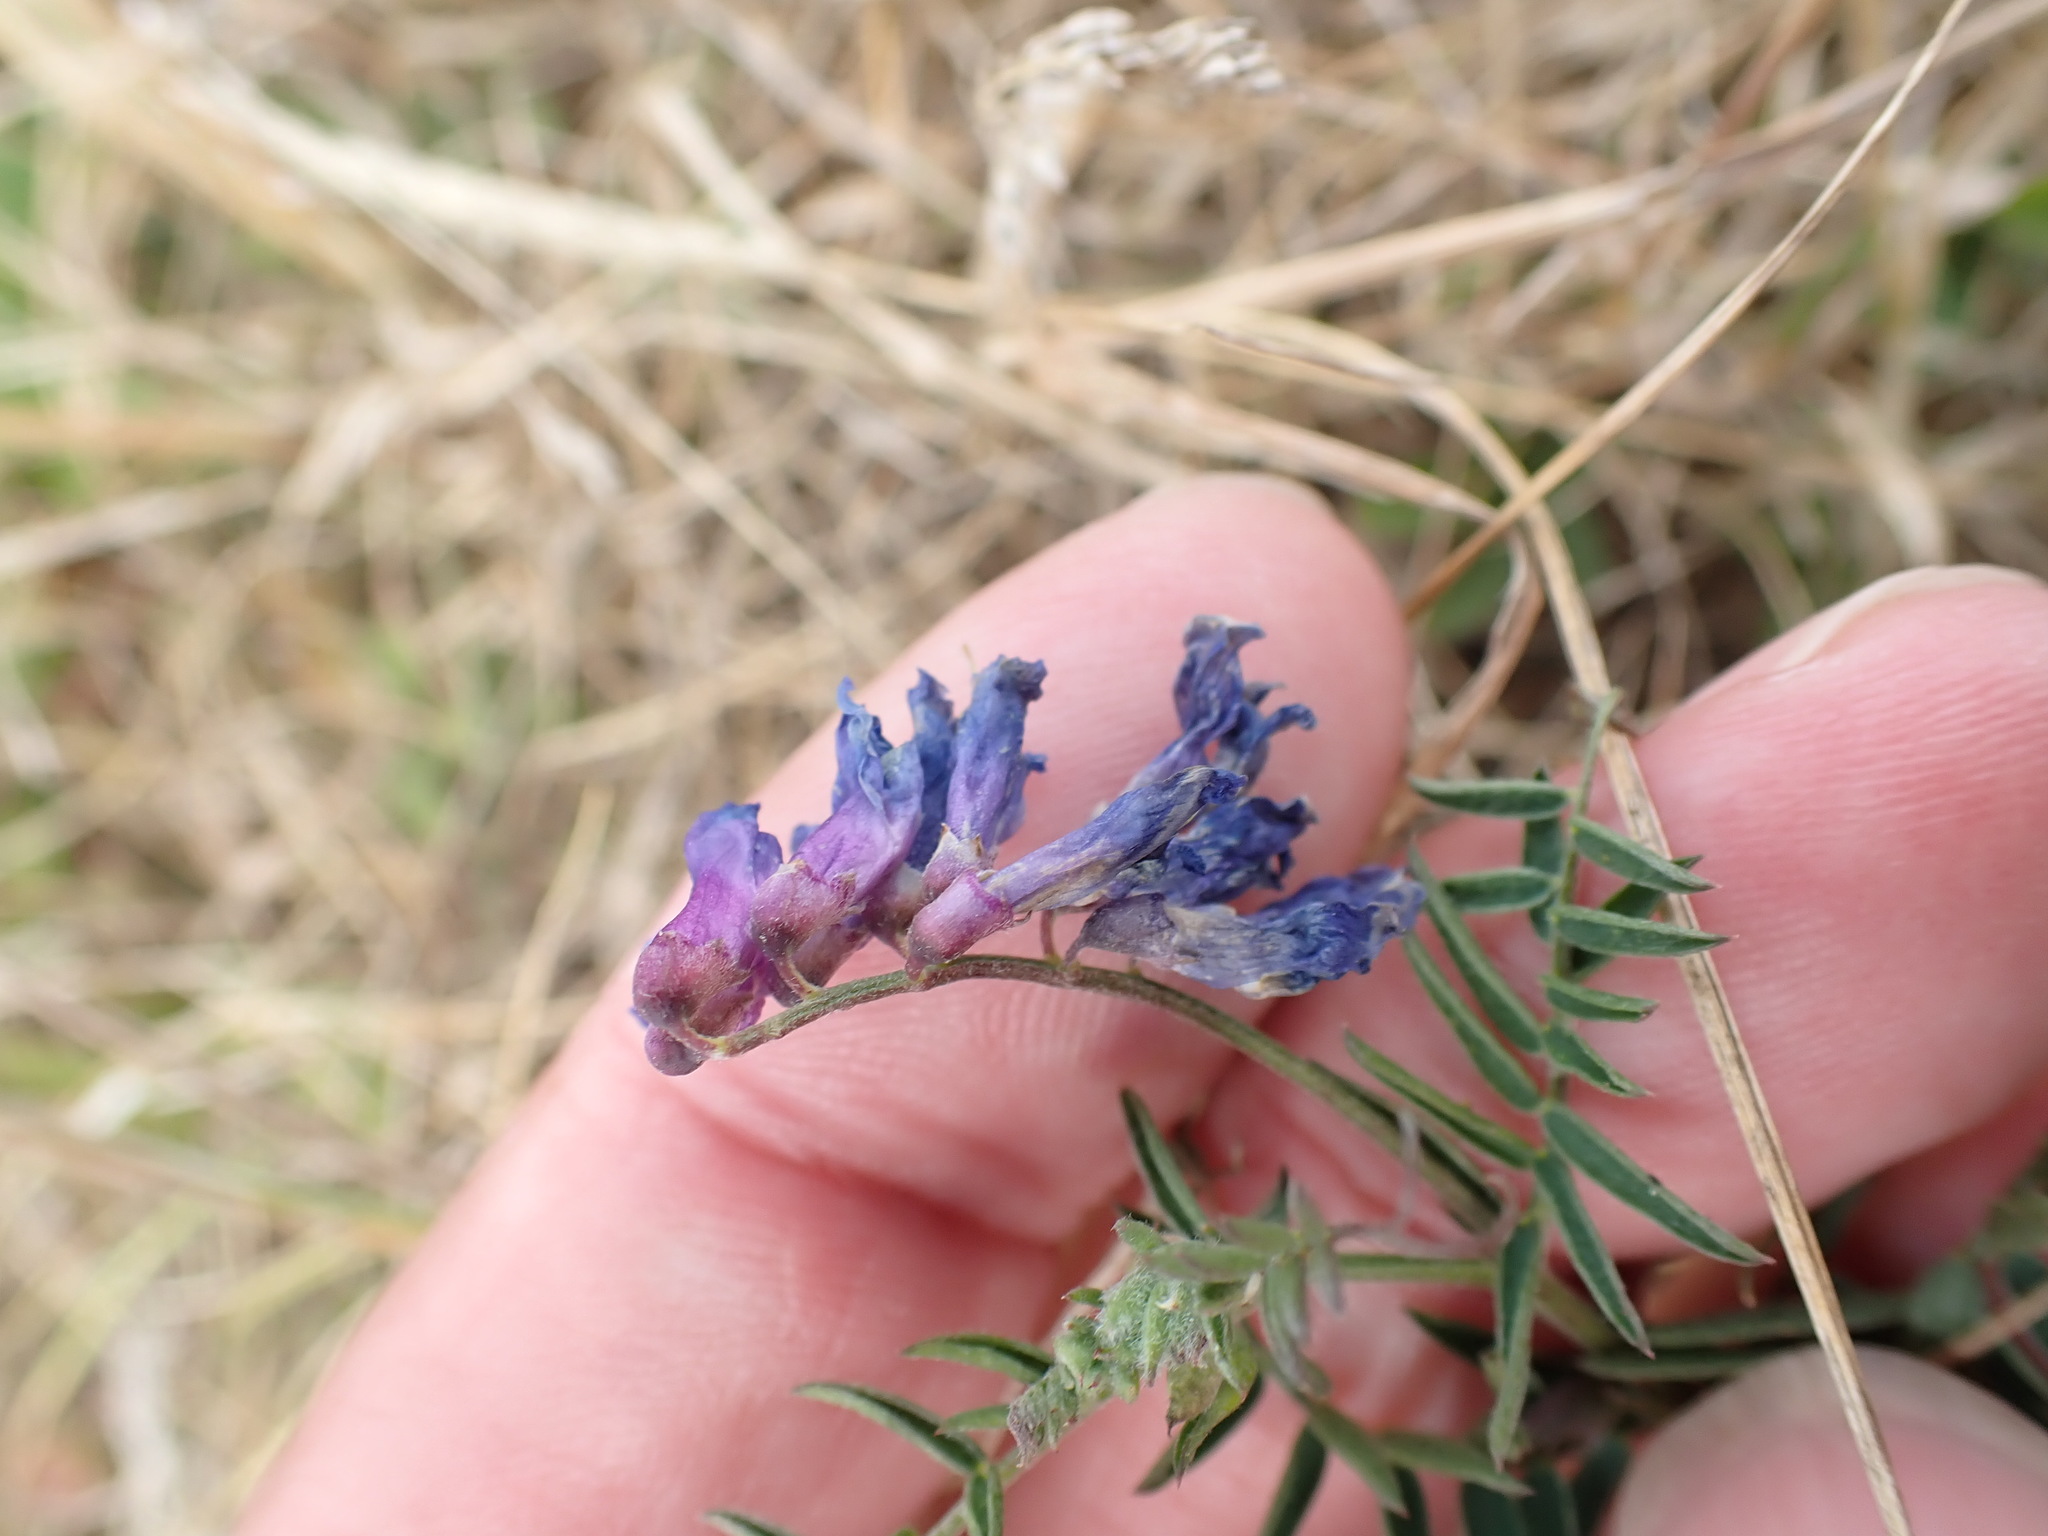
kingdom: Plantae
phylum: Tracheophyta
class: Magnoliopsida
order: Fabales
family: Fabaceae
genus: Vicia
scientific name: Vicia cracca
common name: Bird vetch
